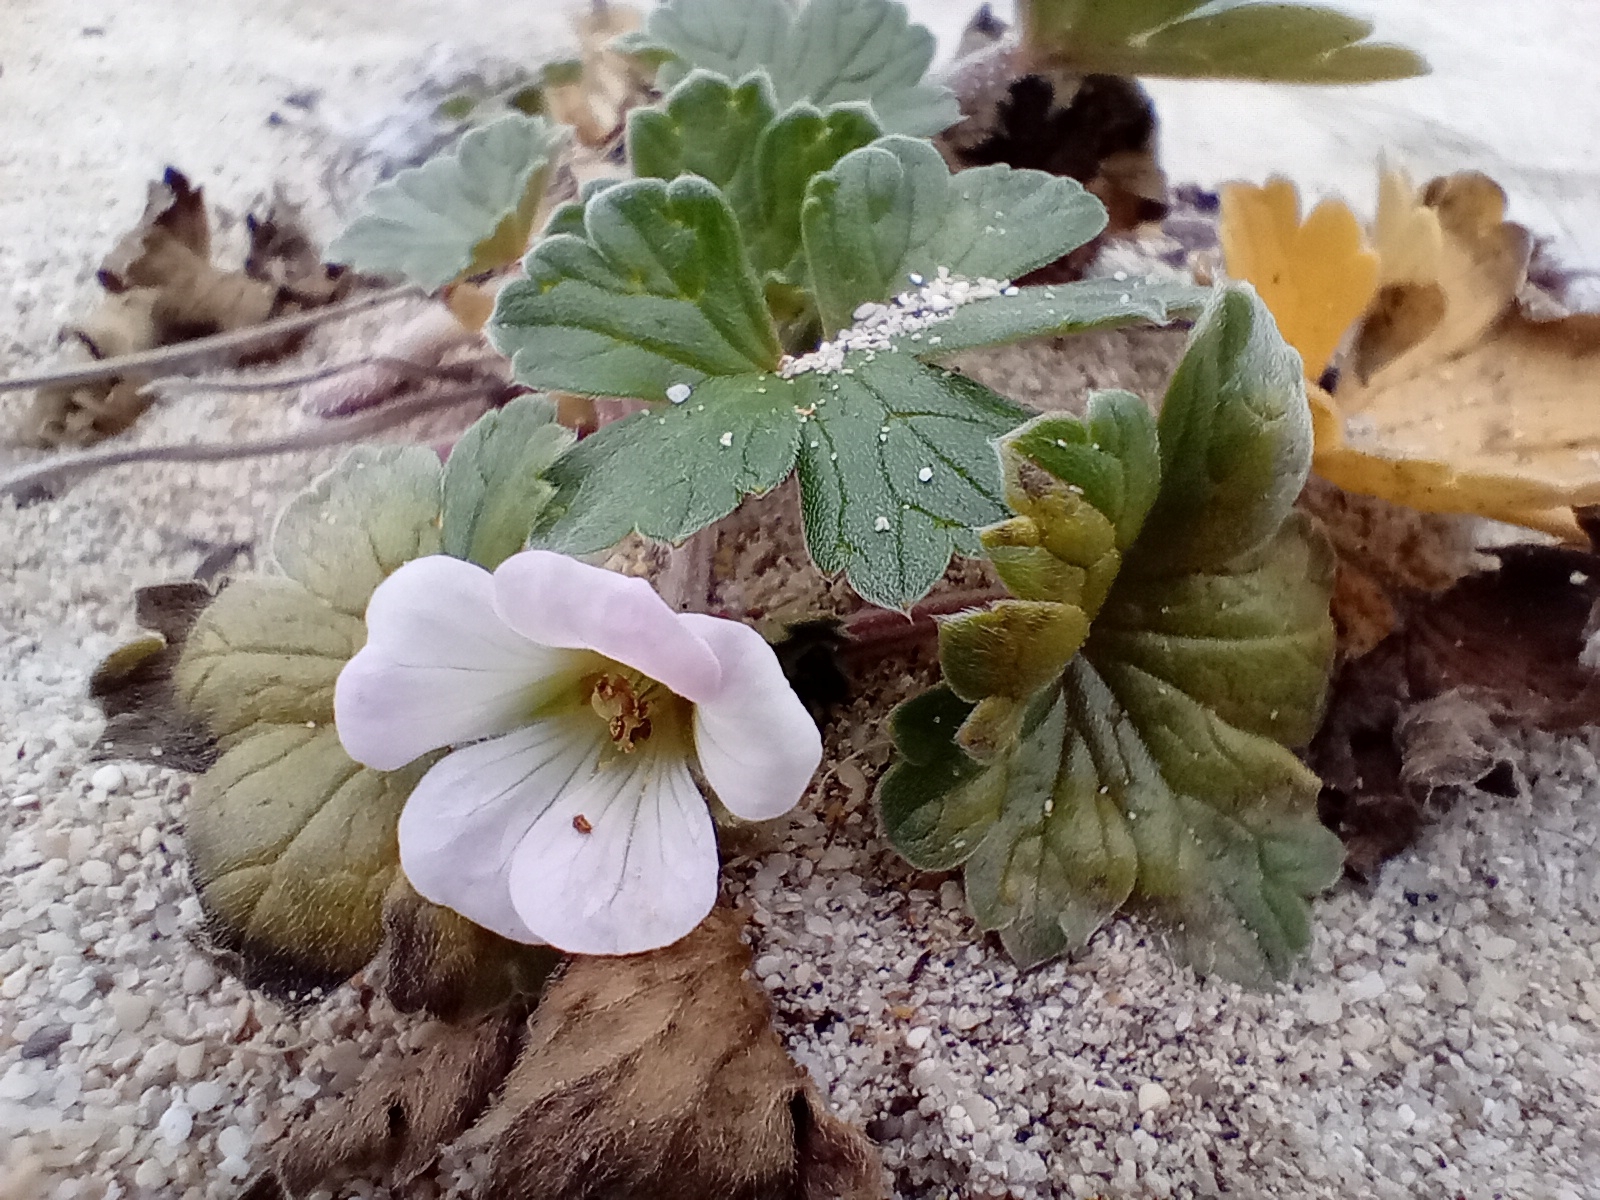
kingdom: Plantae
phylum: Tracheophyta
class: Magnoliopsida
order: Geraniales
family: Geraniaceae
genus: Geranium
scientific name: Geranium traversii
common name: Cranesbill
